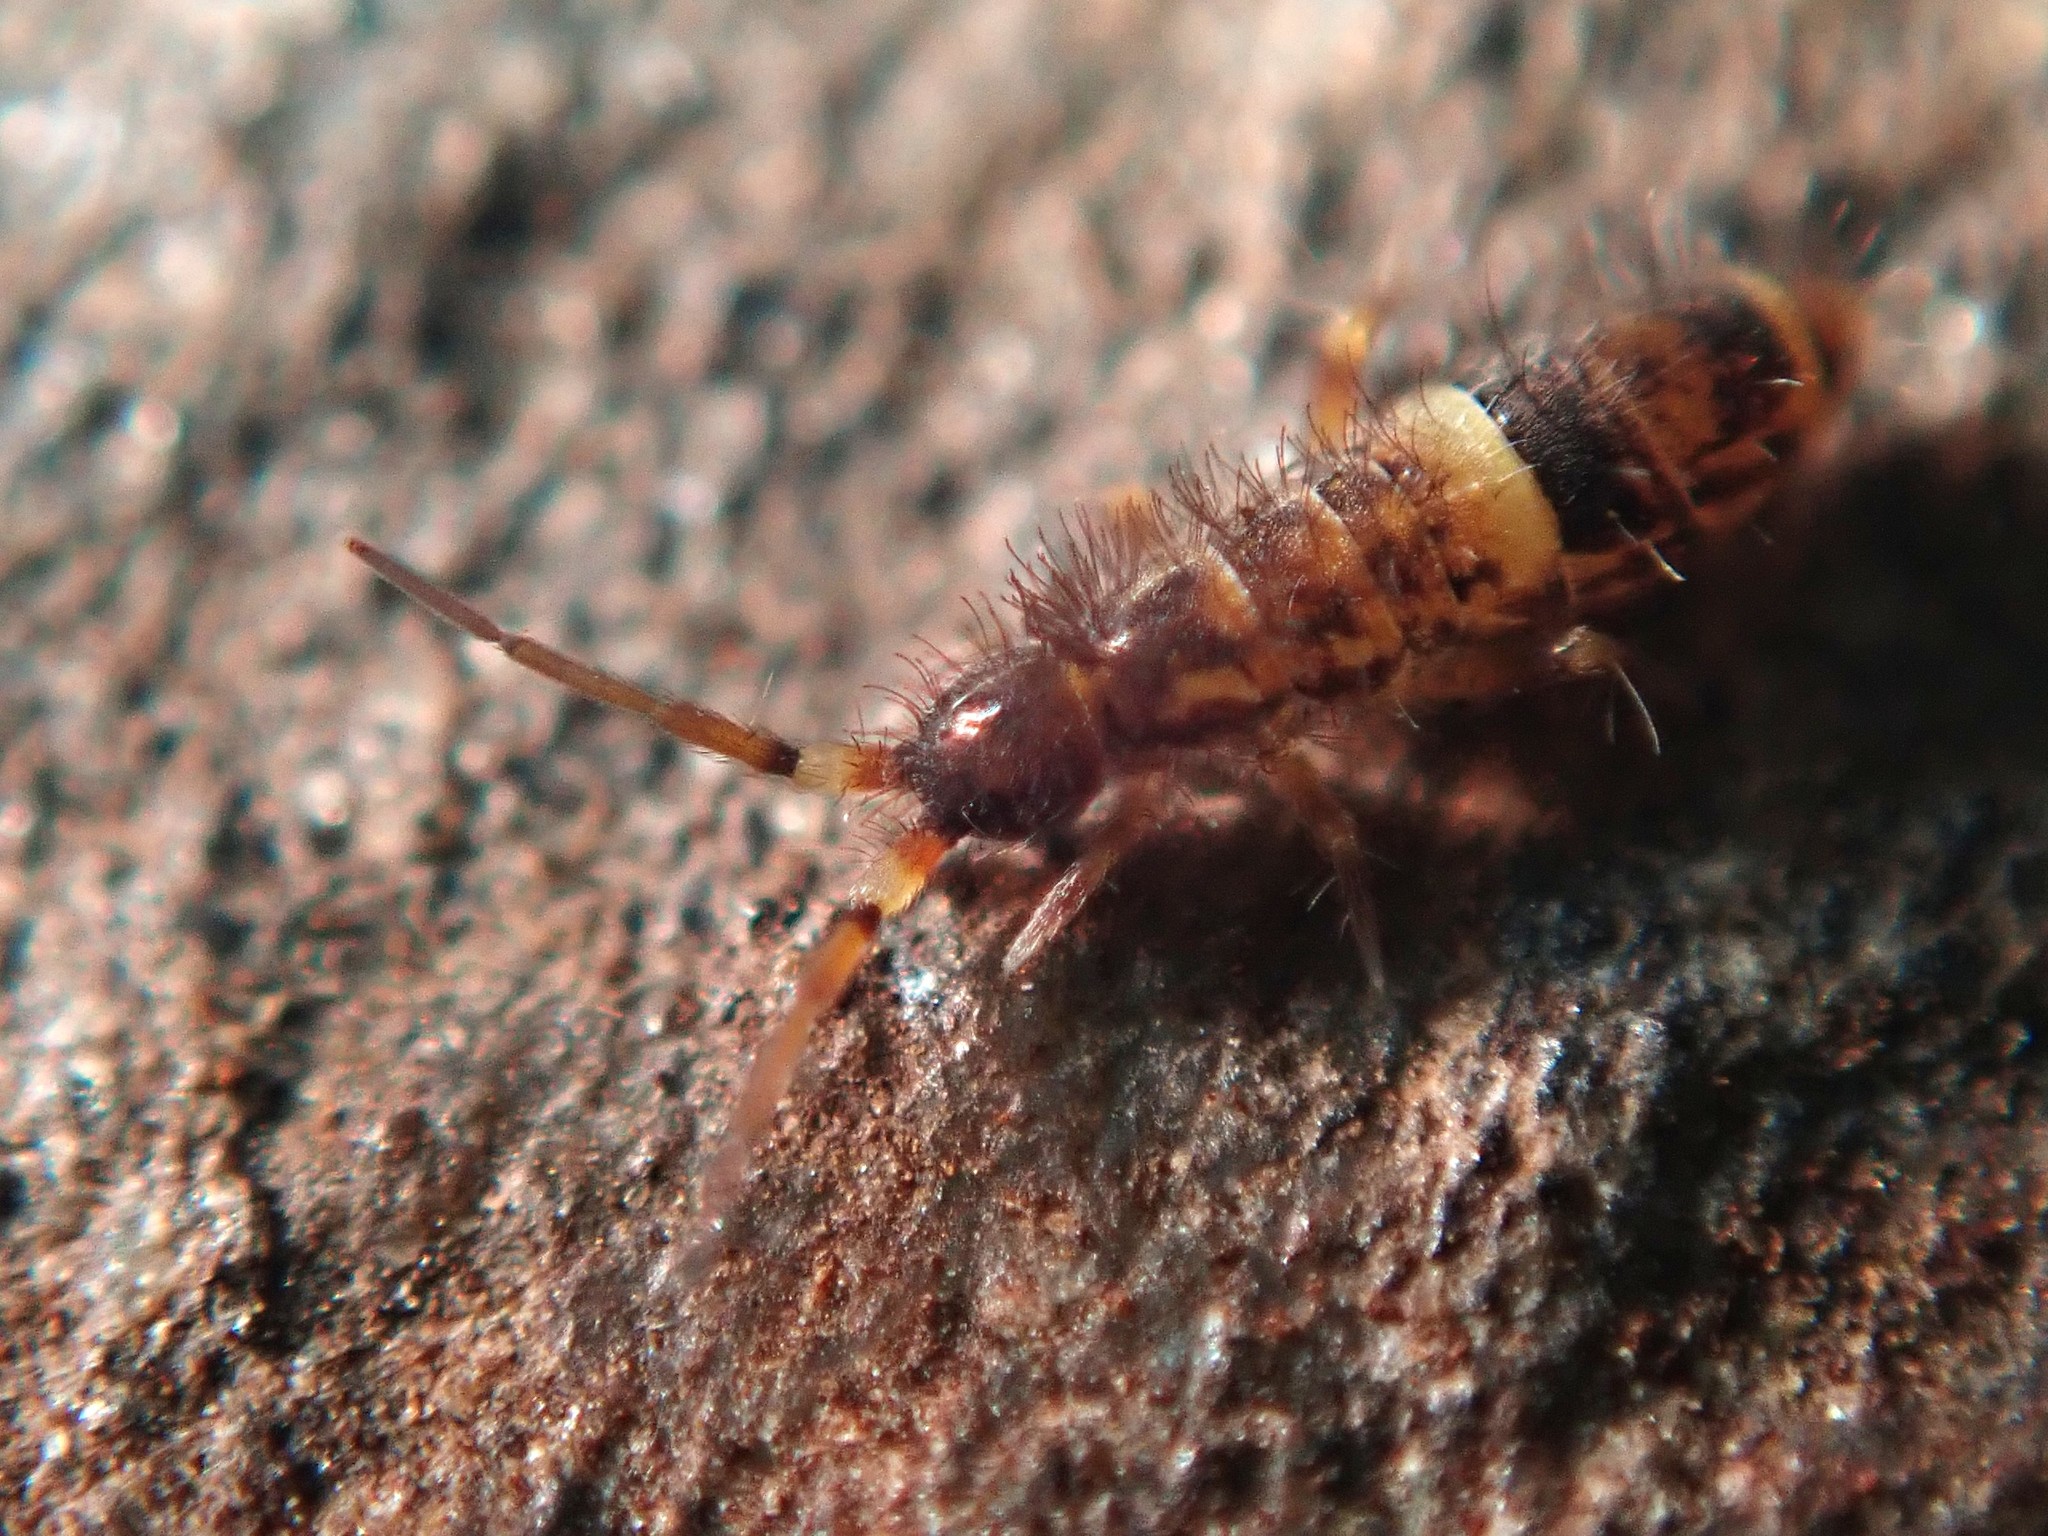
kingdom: Animalia
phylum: Arthropoda
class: Collembola
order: Entomobryomorpha
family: Orchesellidae
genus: Orchesella
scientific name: Orchesella cincta
